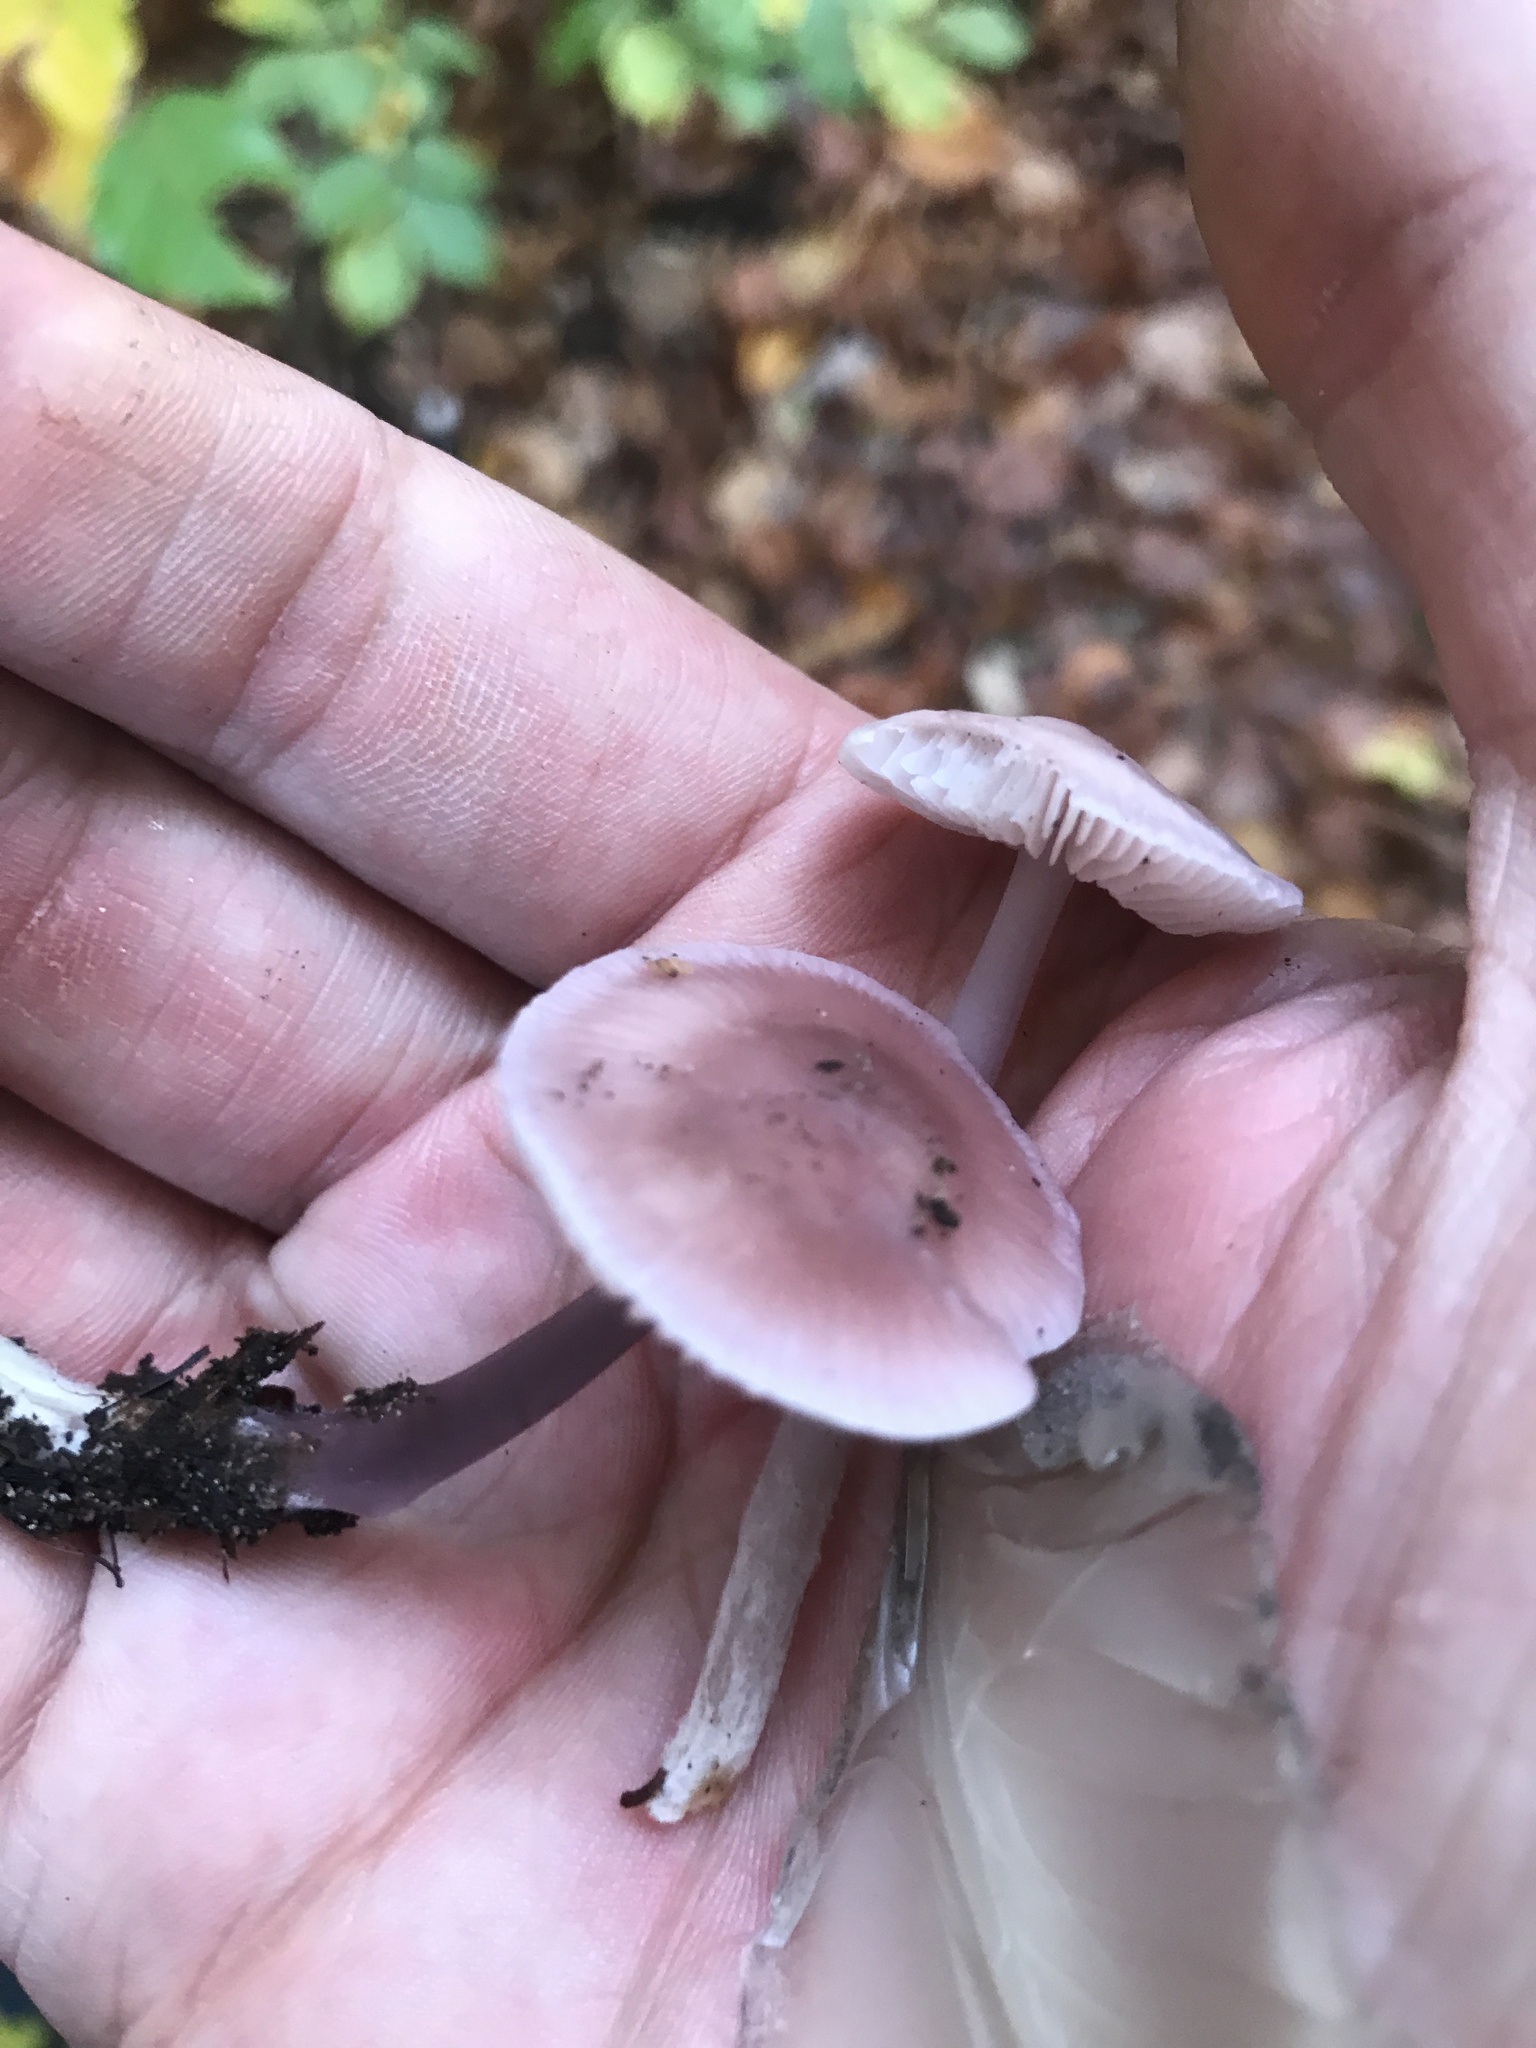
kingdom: Fungi
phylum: Basidiomycota
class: Agaricomycetes
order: Agaricales
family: Mycenaceae
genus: Mycena
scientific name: Mycena rosea
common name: Rosy bonnet
